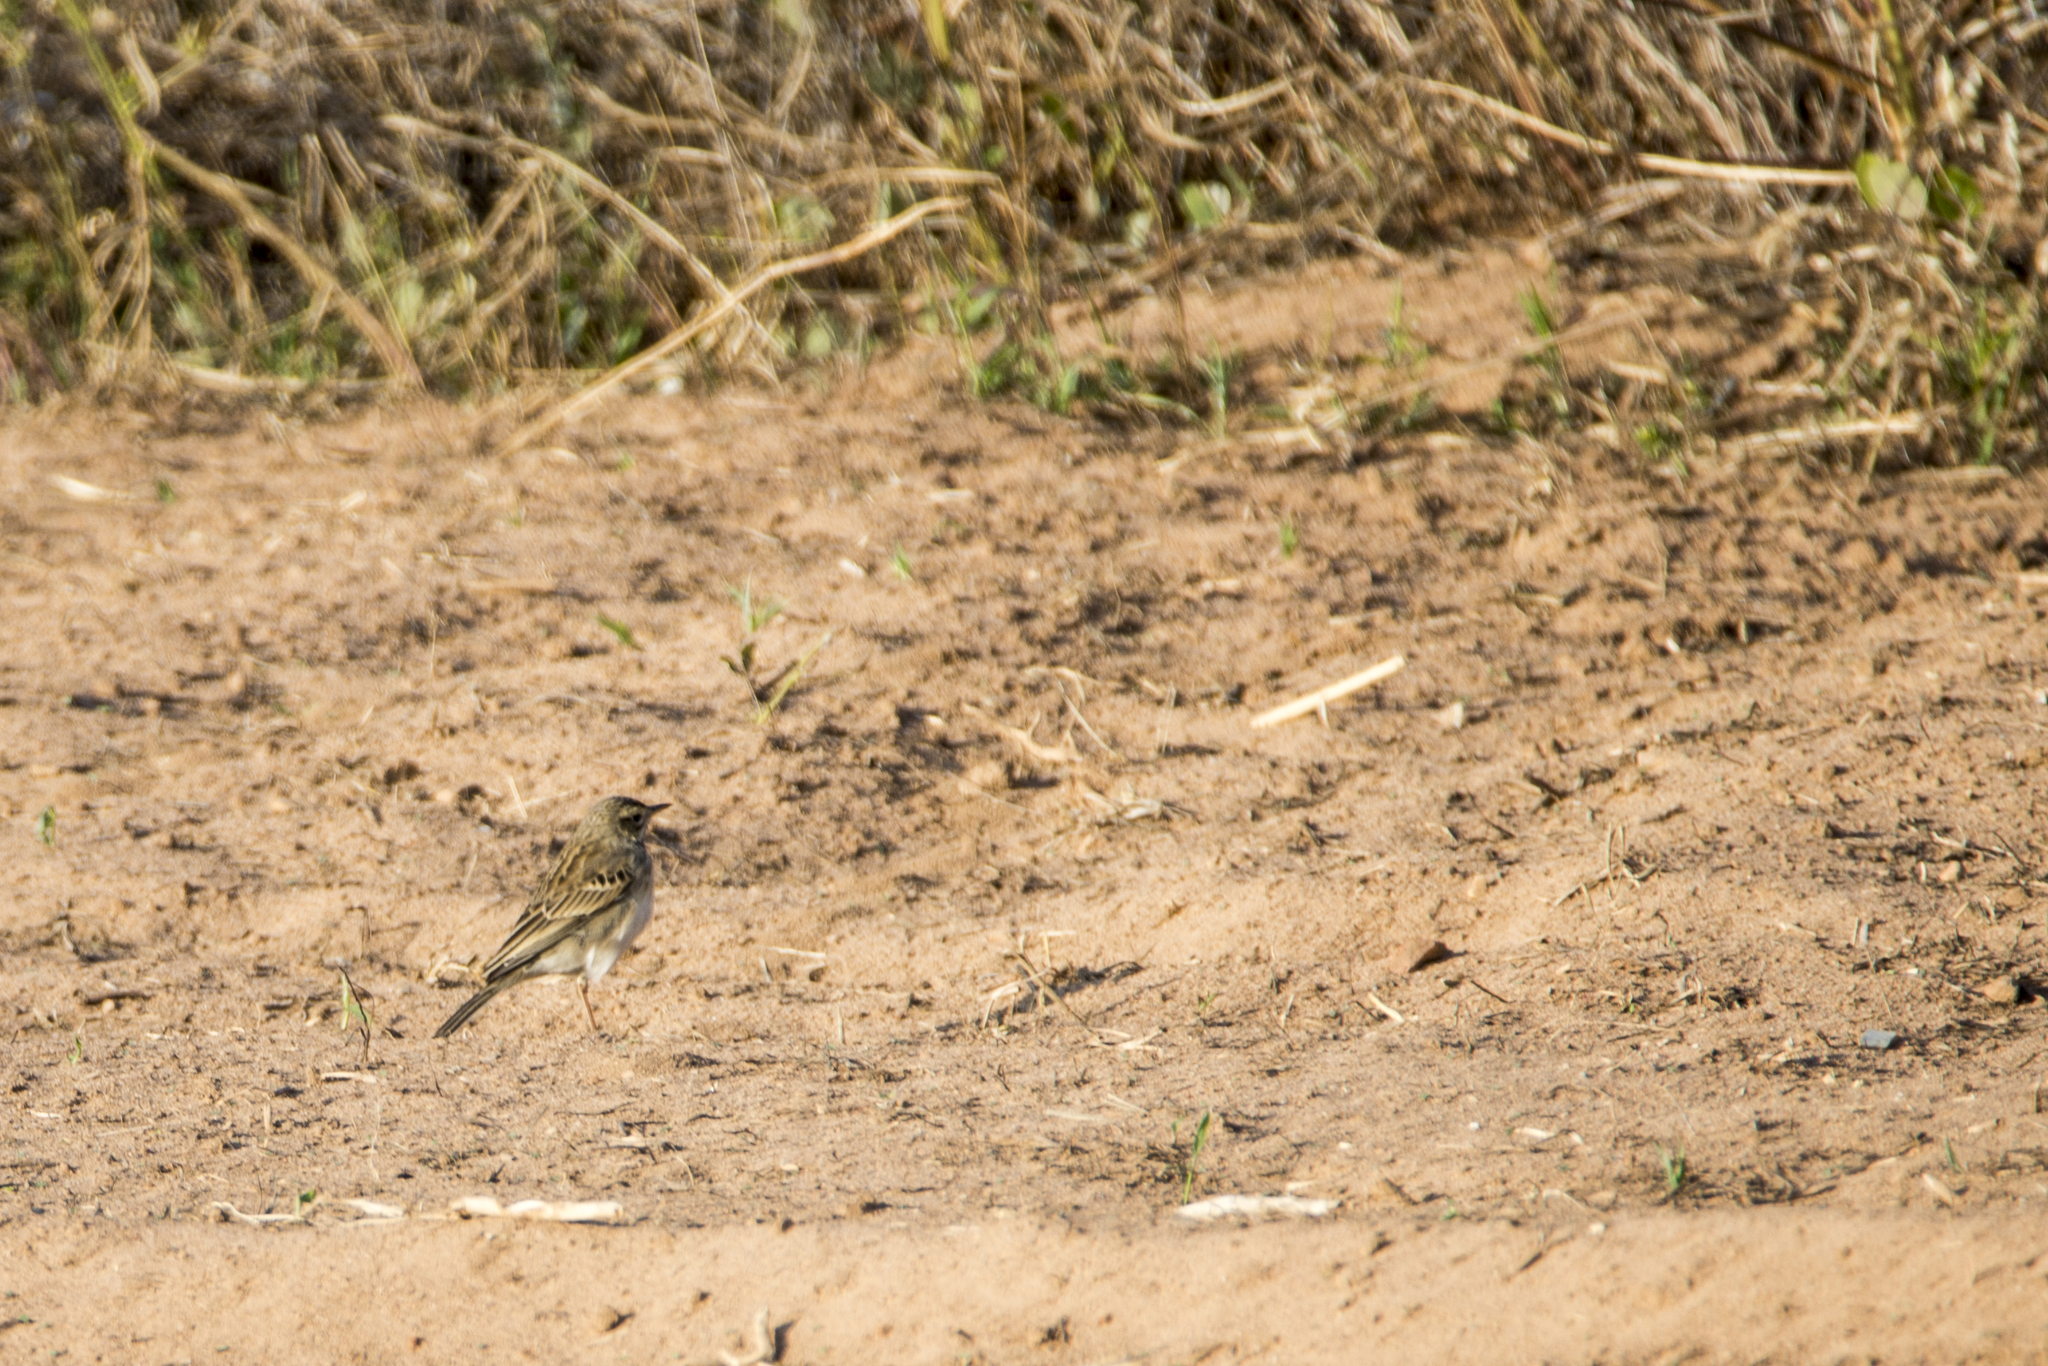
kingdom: Animalia
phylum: Chordata
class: Aves
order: Passeriformes
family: Motacillidae
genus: Anthus
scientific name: Anthus richardi
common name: Richard's pipit
